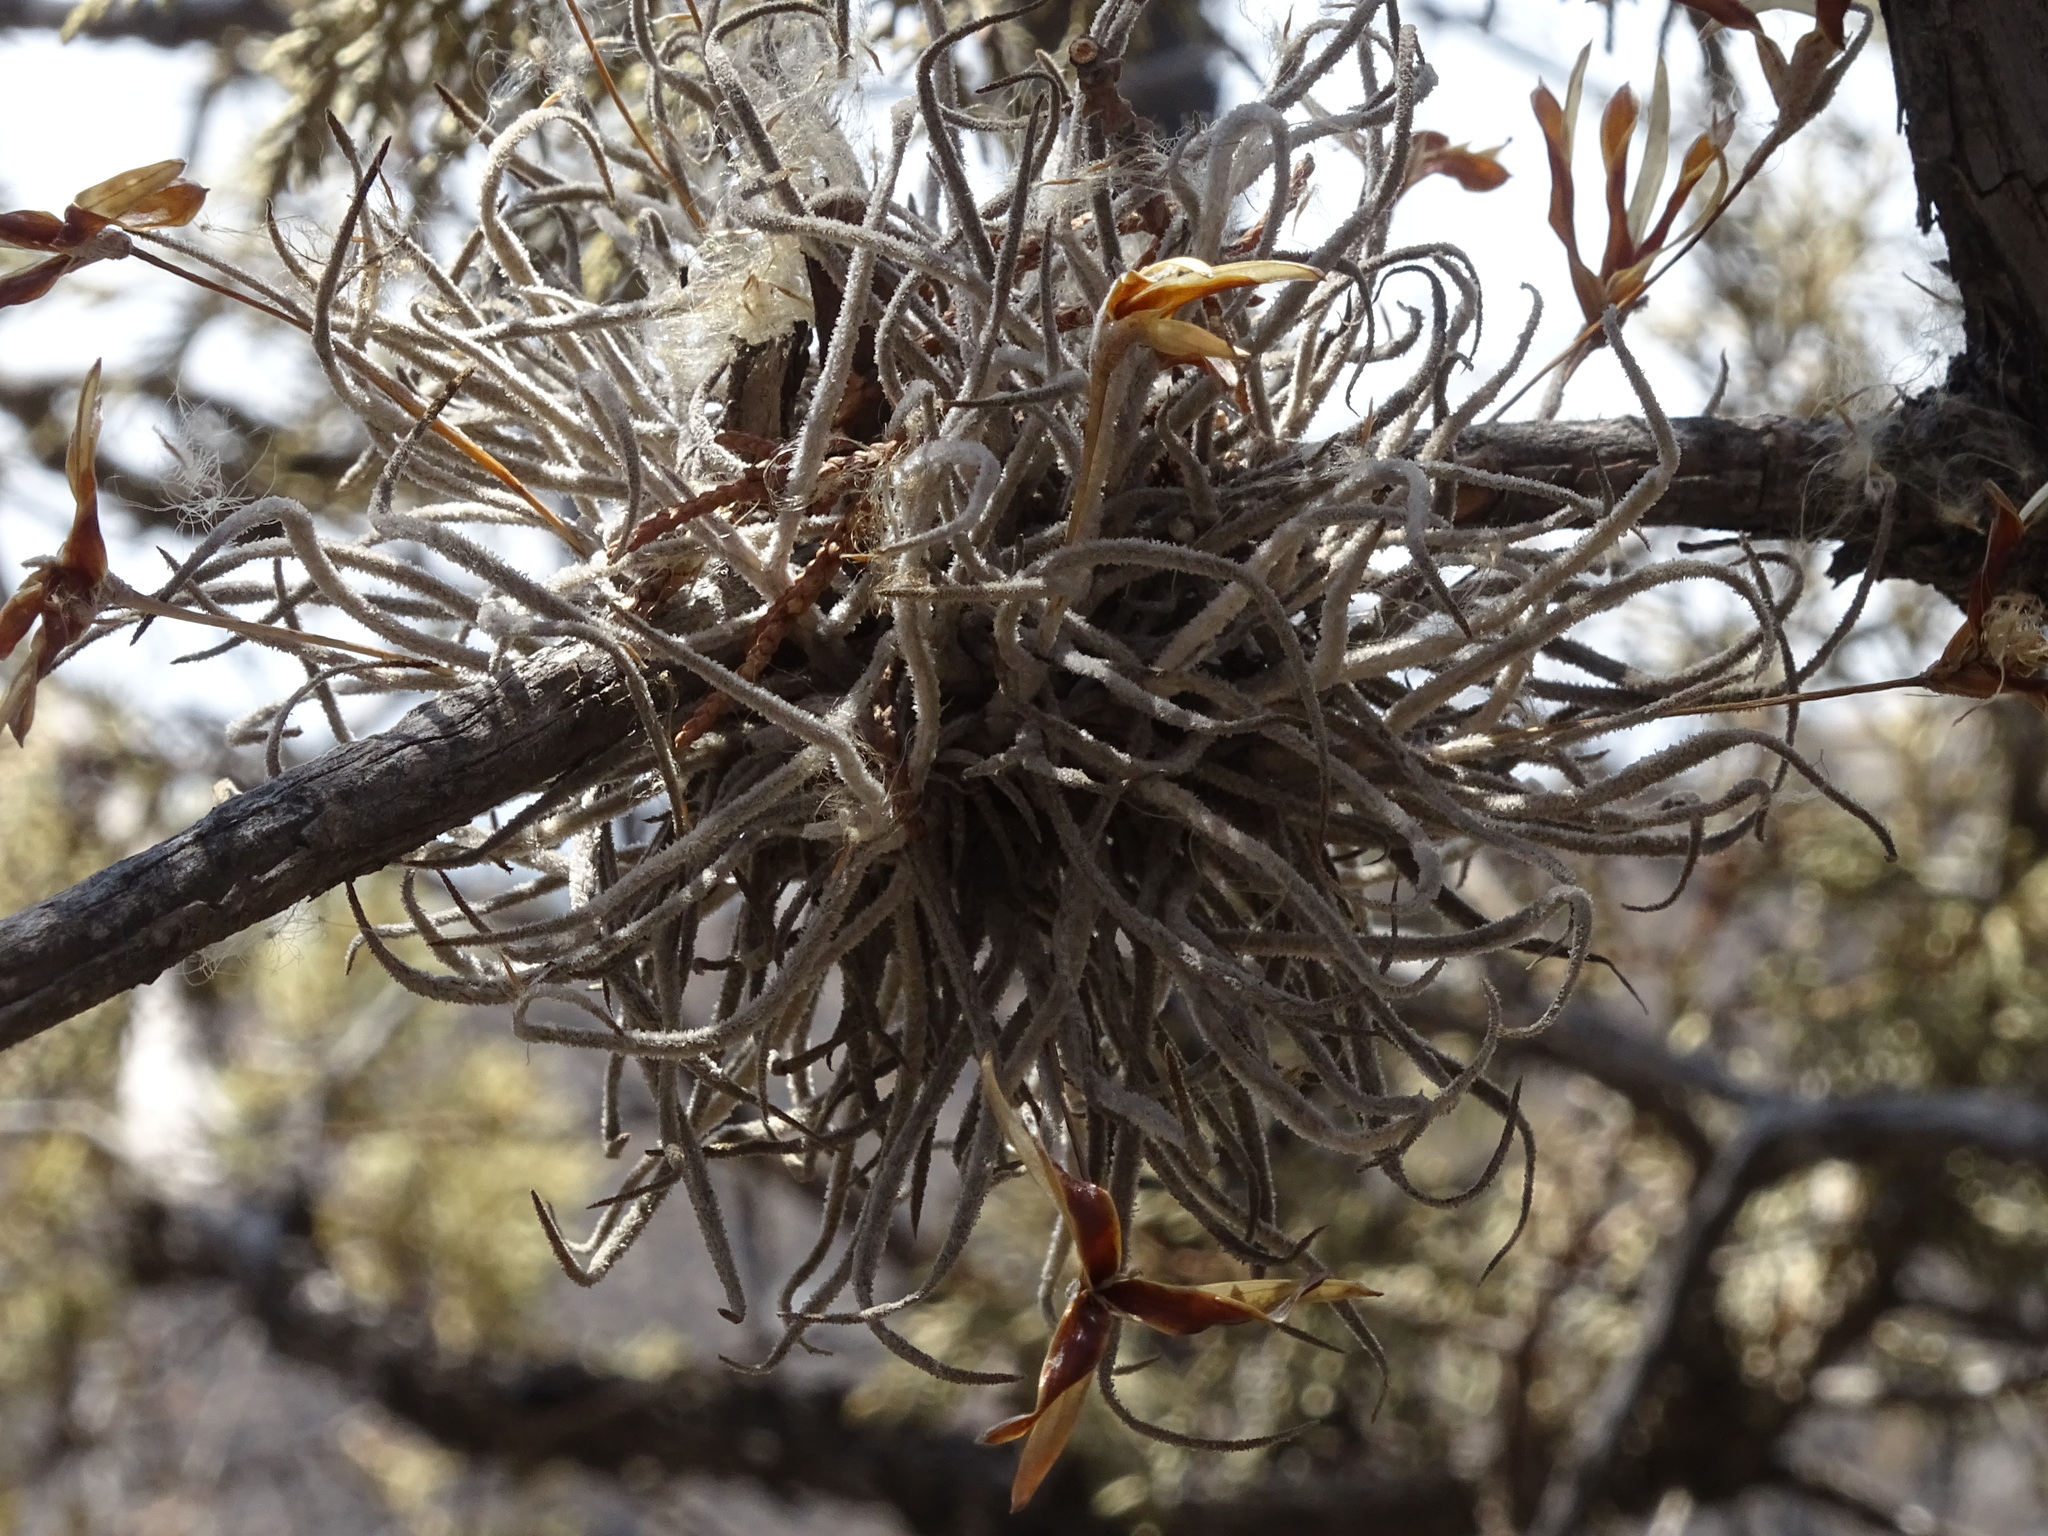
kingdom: Plantae
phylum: Tracheophyta
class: Liliopsida
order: Poales
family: Bromeliaceae
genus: Tillandsia
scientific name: Tillandsia recurvata
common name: Small ballmoss
